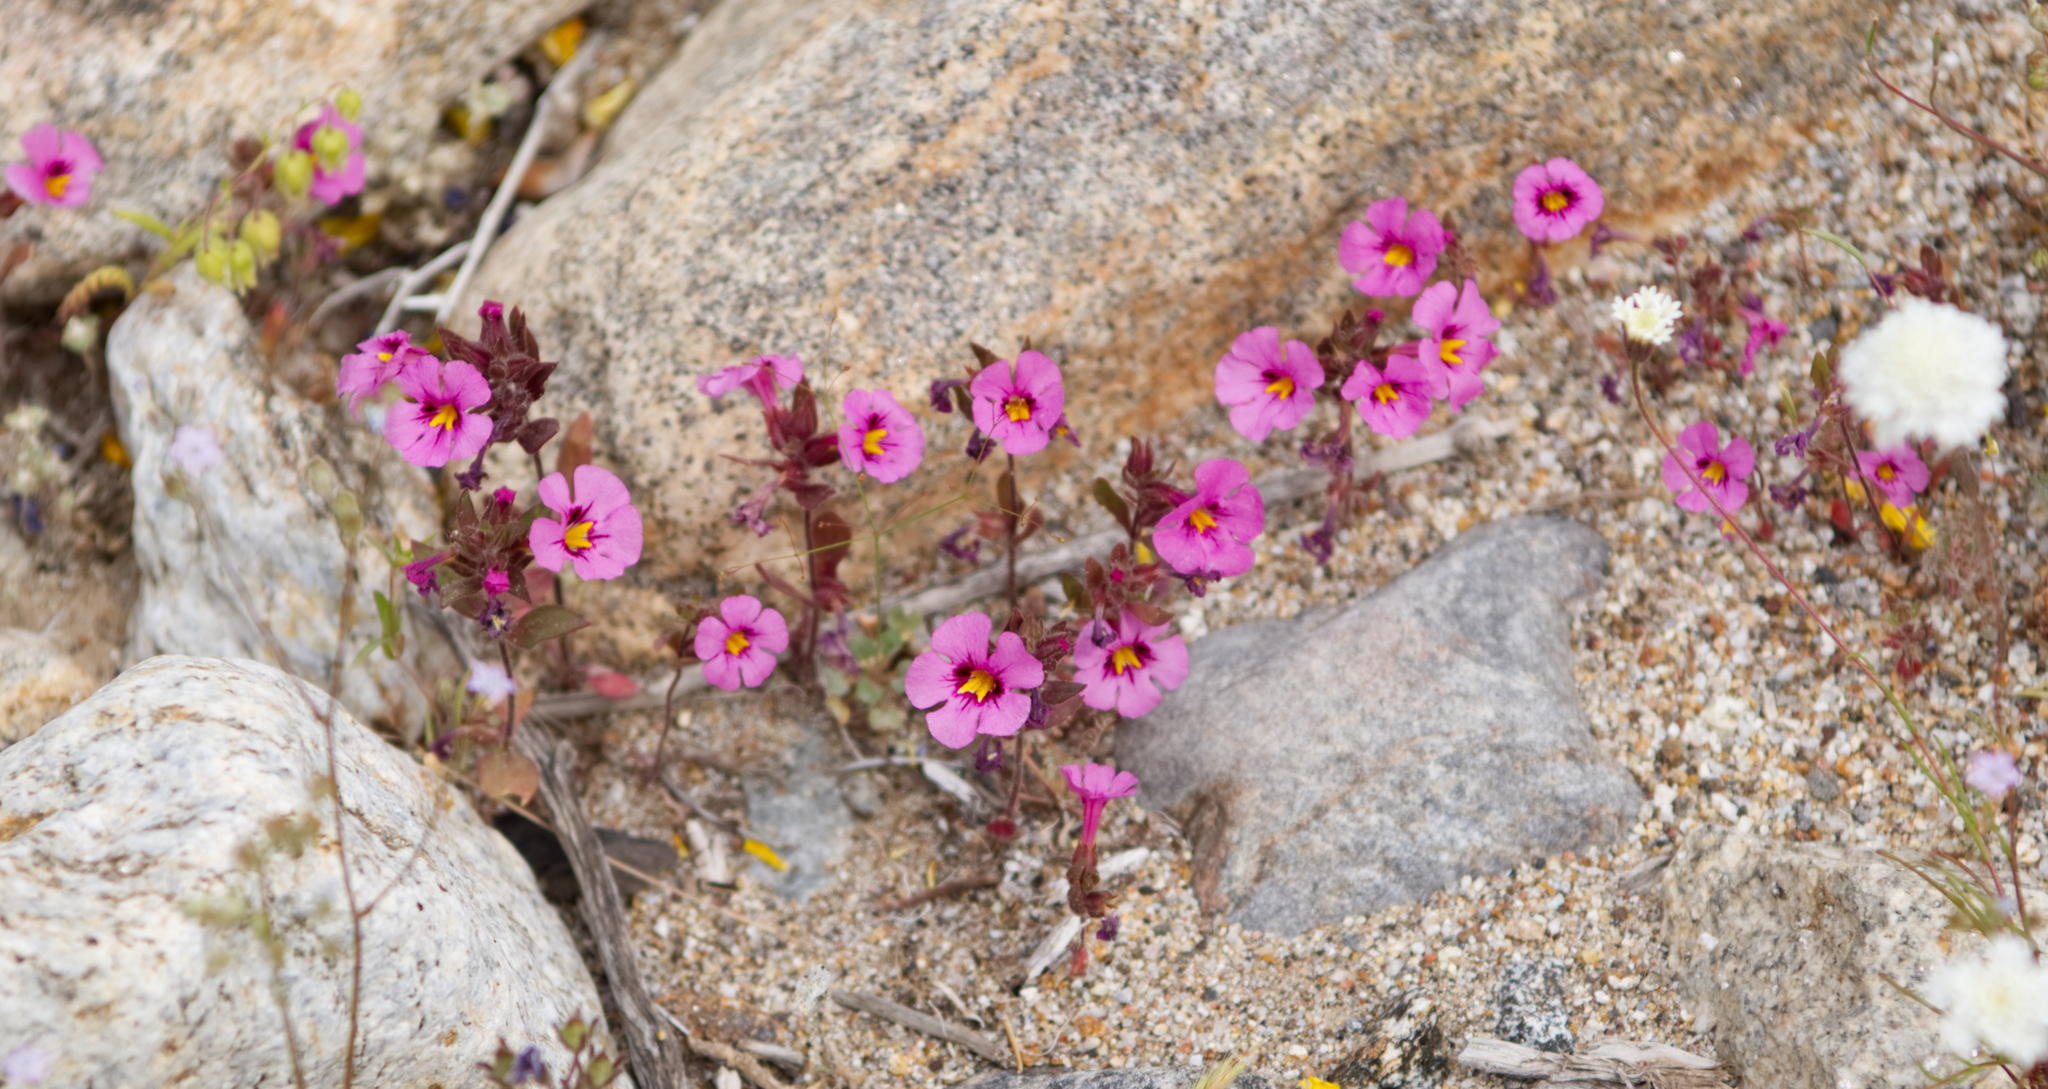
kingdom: Plantae
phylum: Tracheophyta
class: Magnoliopsida
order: Lamiales
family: Phrymaceae
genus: Diplacus
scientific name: Diplacus bigelovii
